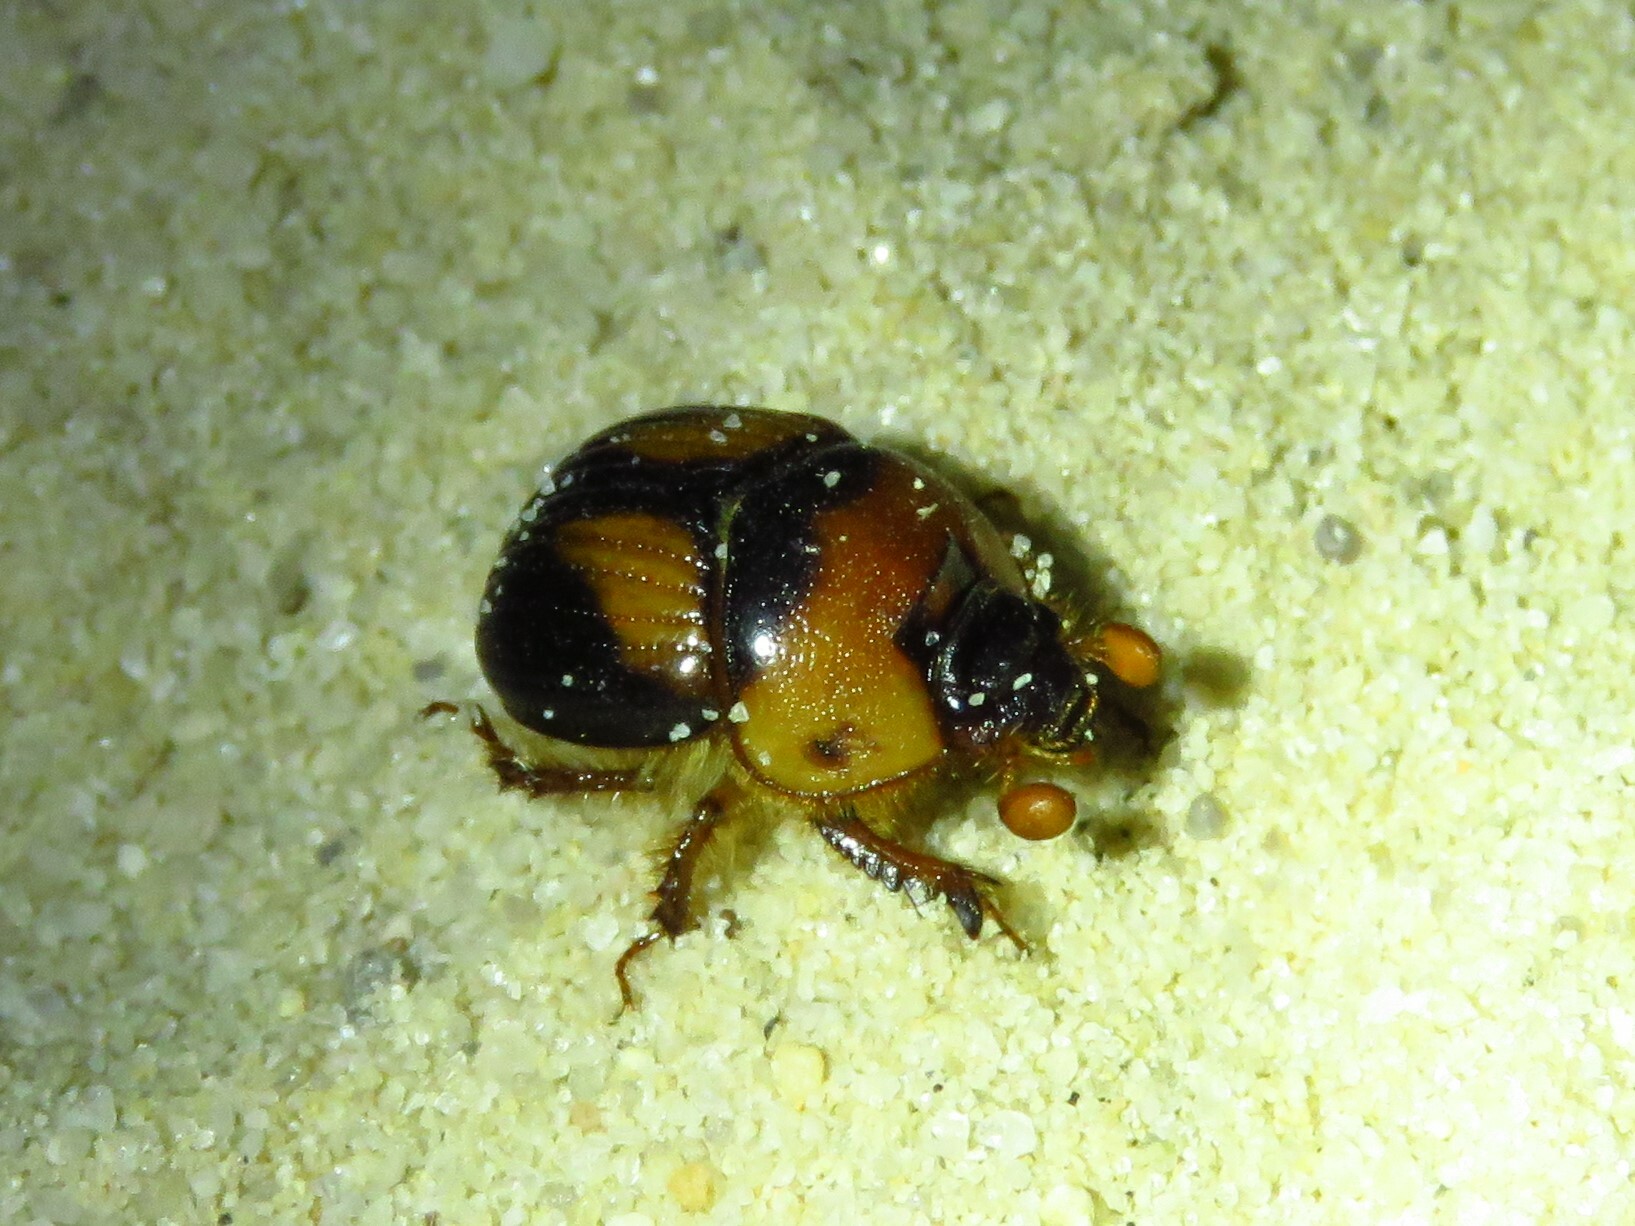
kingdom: Animalia
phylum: Arthropoda
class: Insecta
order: Coleoptera
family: Geotrupidae
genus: Bolbocerosoma
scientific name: Bolbocerosoma farctum
